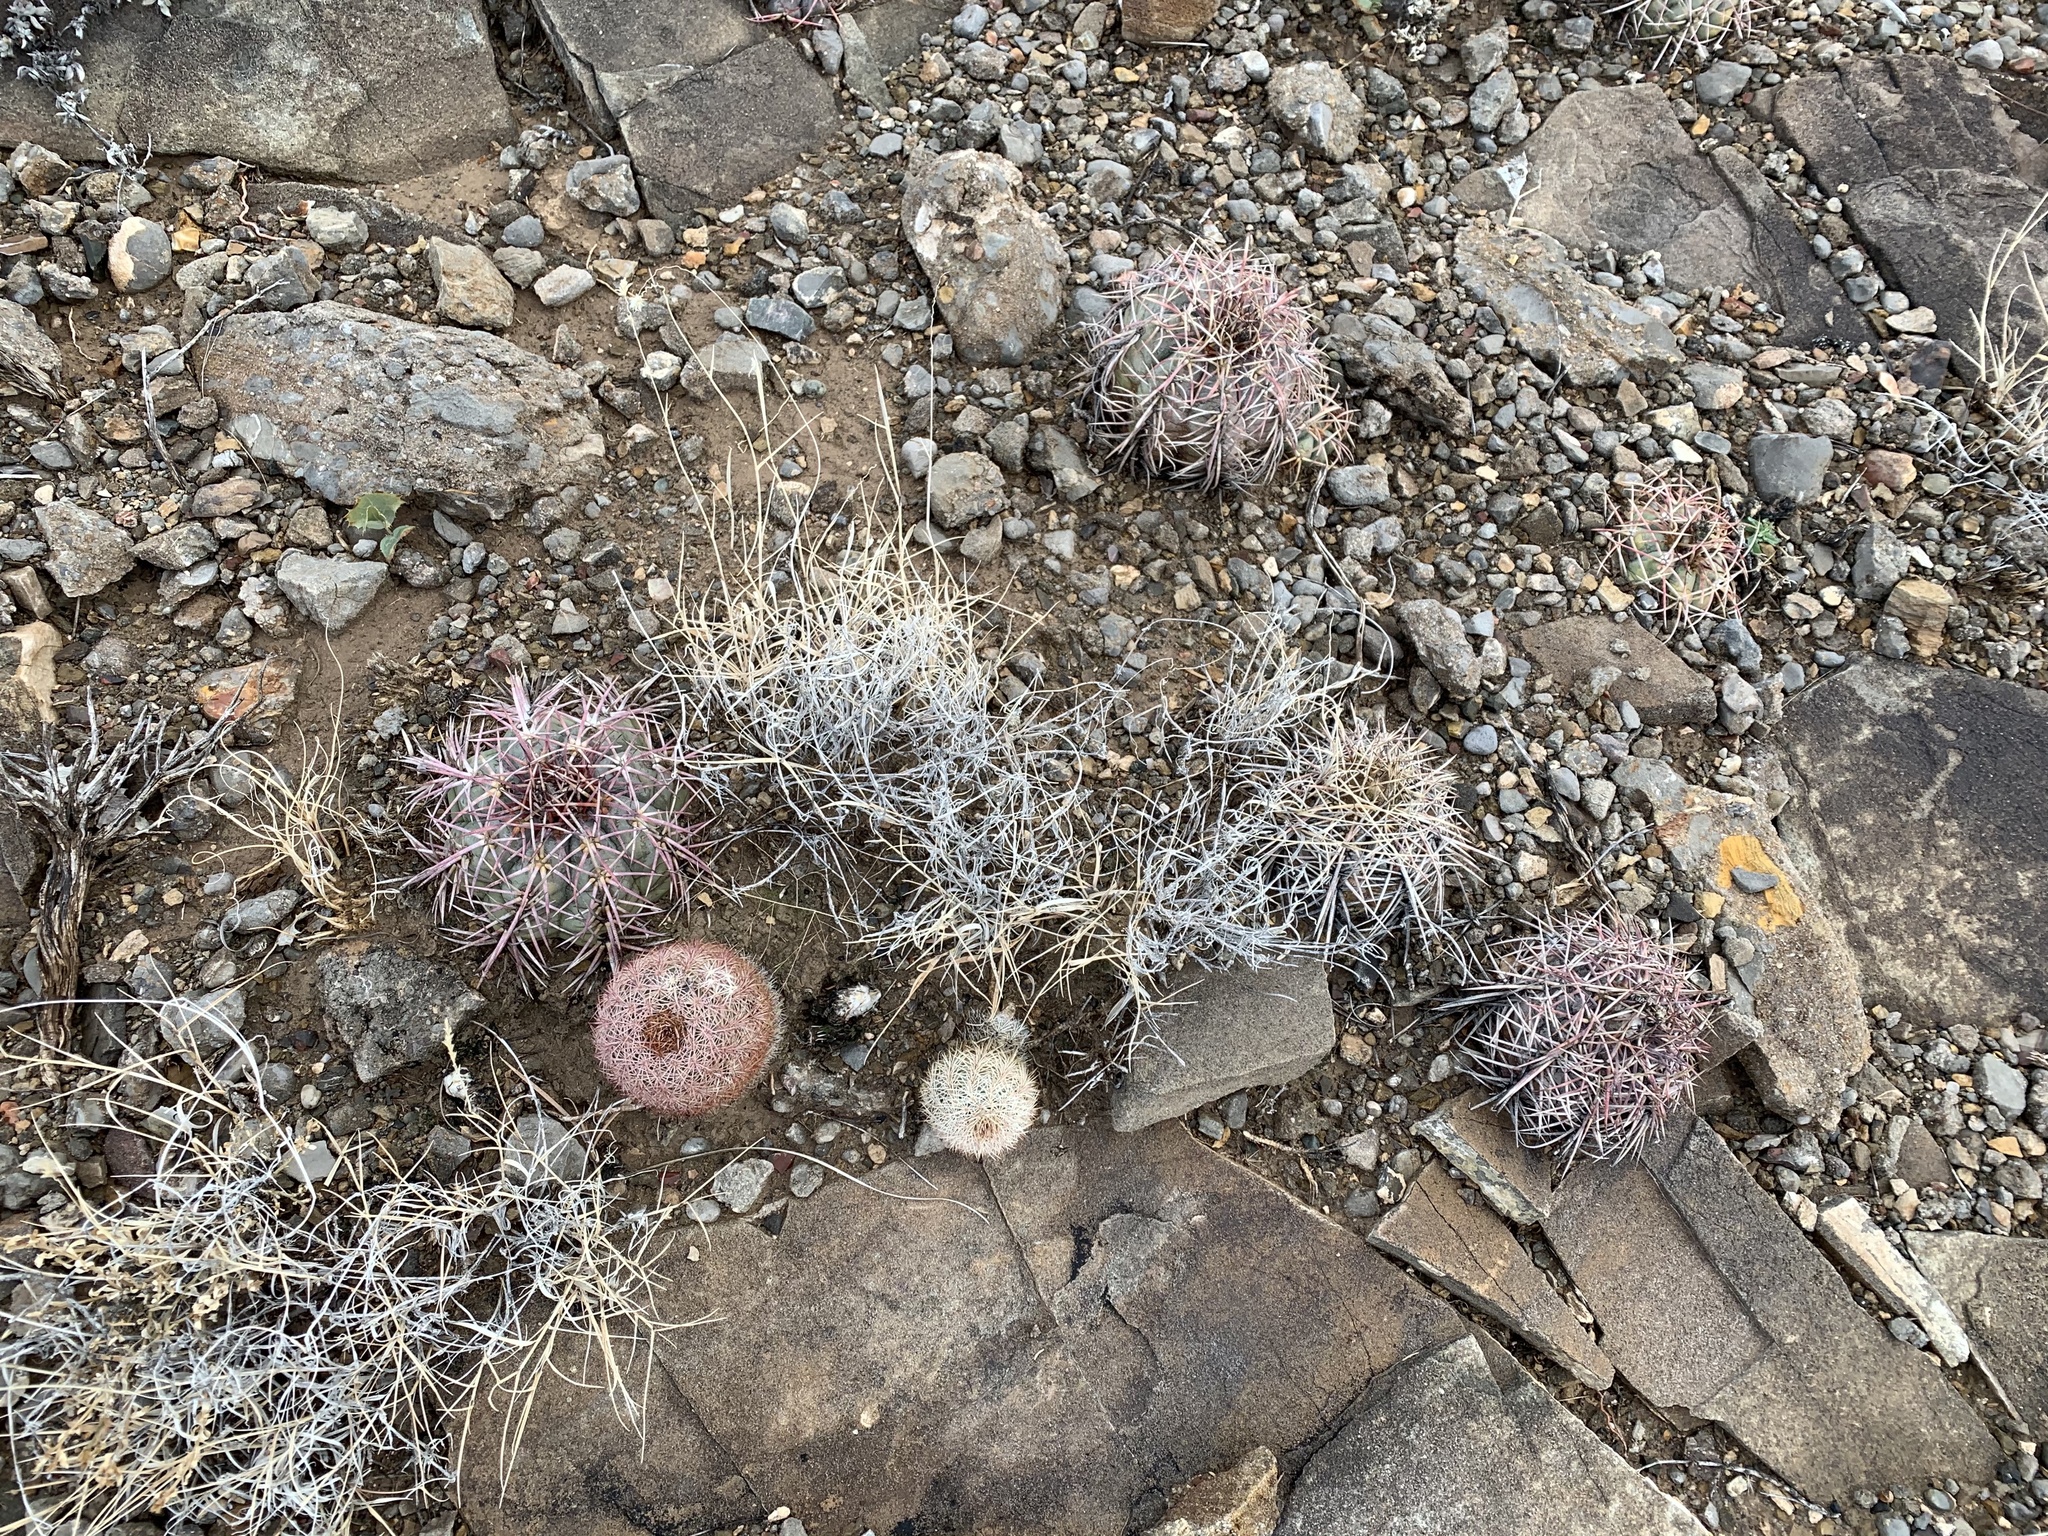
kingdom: Plantae
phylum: Tracheophyta
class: Magnoliopsida
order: Caryophyllales
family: Cactaceae
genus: Echinocactus
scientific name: Echinocactus horizonthalonius
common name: Devilshead
